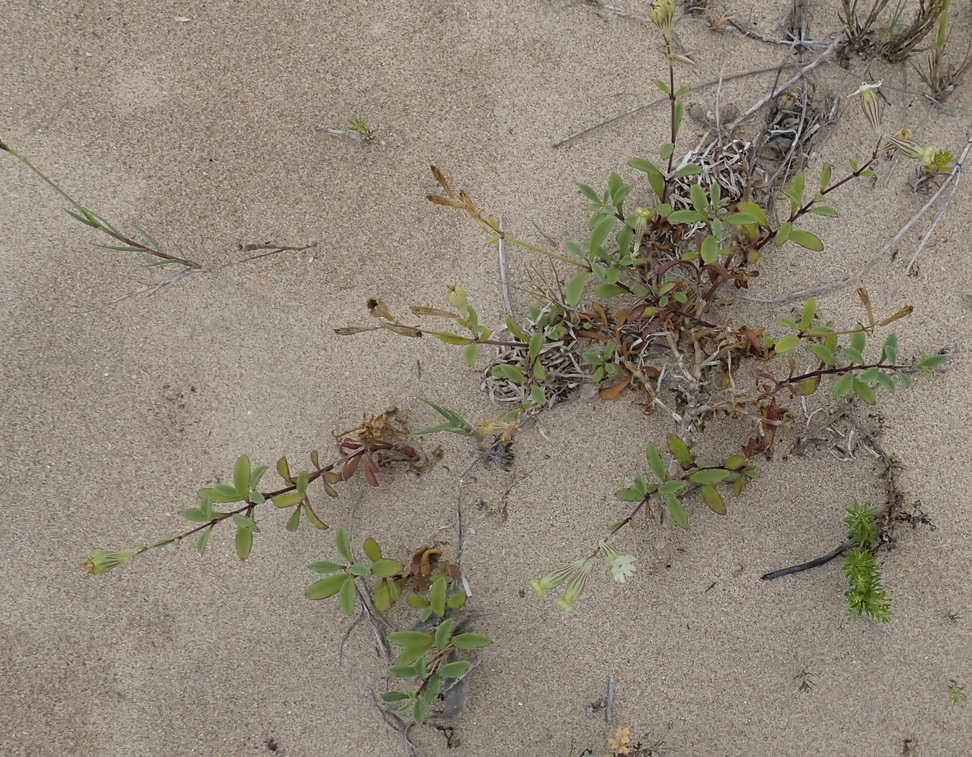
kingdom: Plantae
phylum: Tracheophyta
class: Magnoliopsida
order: Caryophyllales
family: Caryophyllaceae
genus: Silene
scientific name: Silene crassifolia
